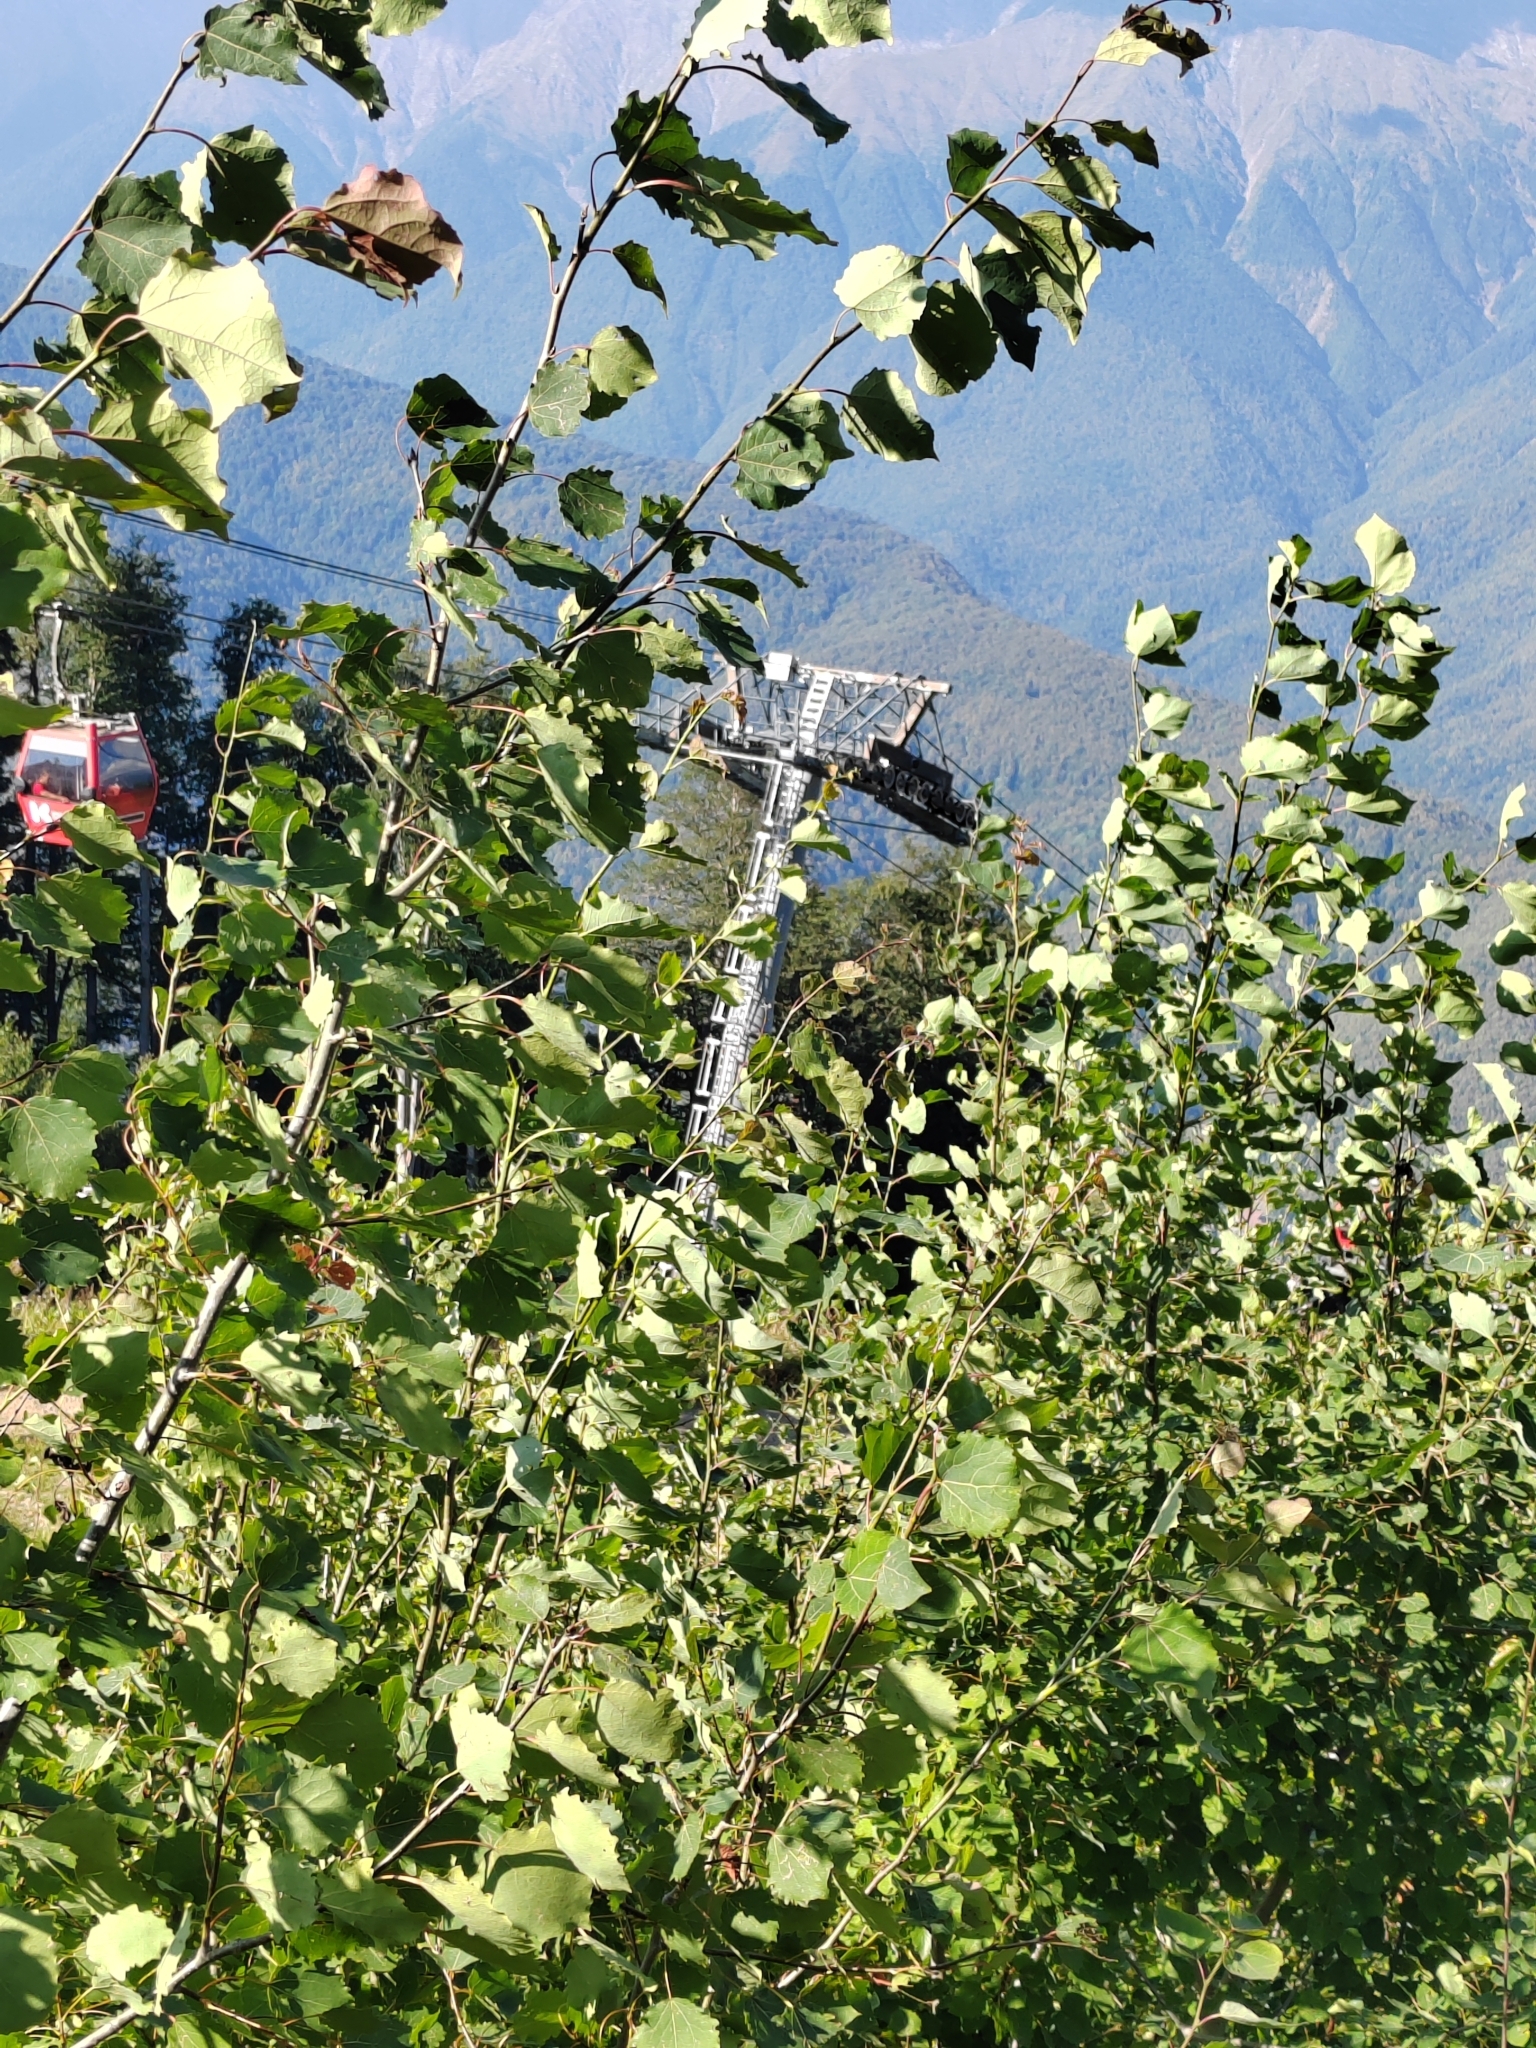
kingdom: Plantae
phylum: Tracheophyta
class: Magnoliopsida
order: Malpighiales
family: Salicaceae
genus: Populus
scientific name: Populus tremula
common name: European aspen
